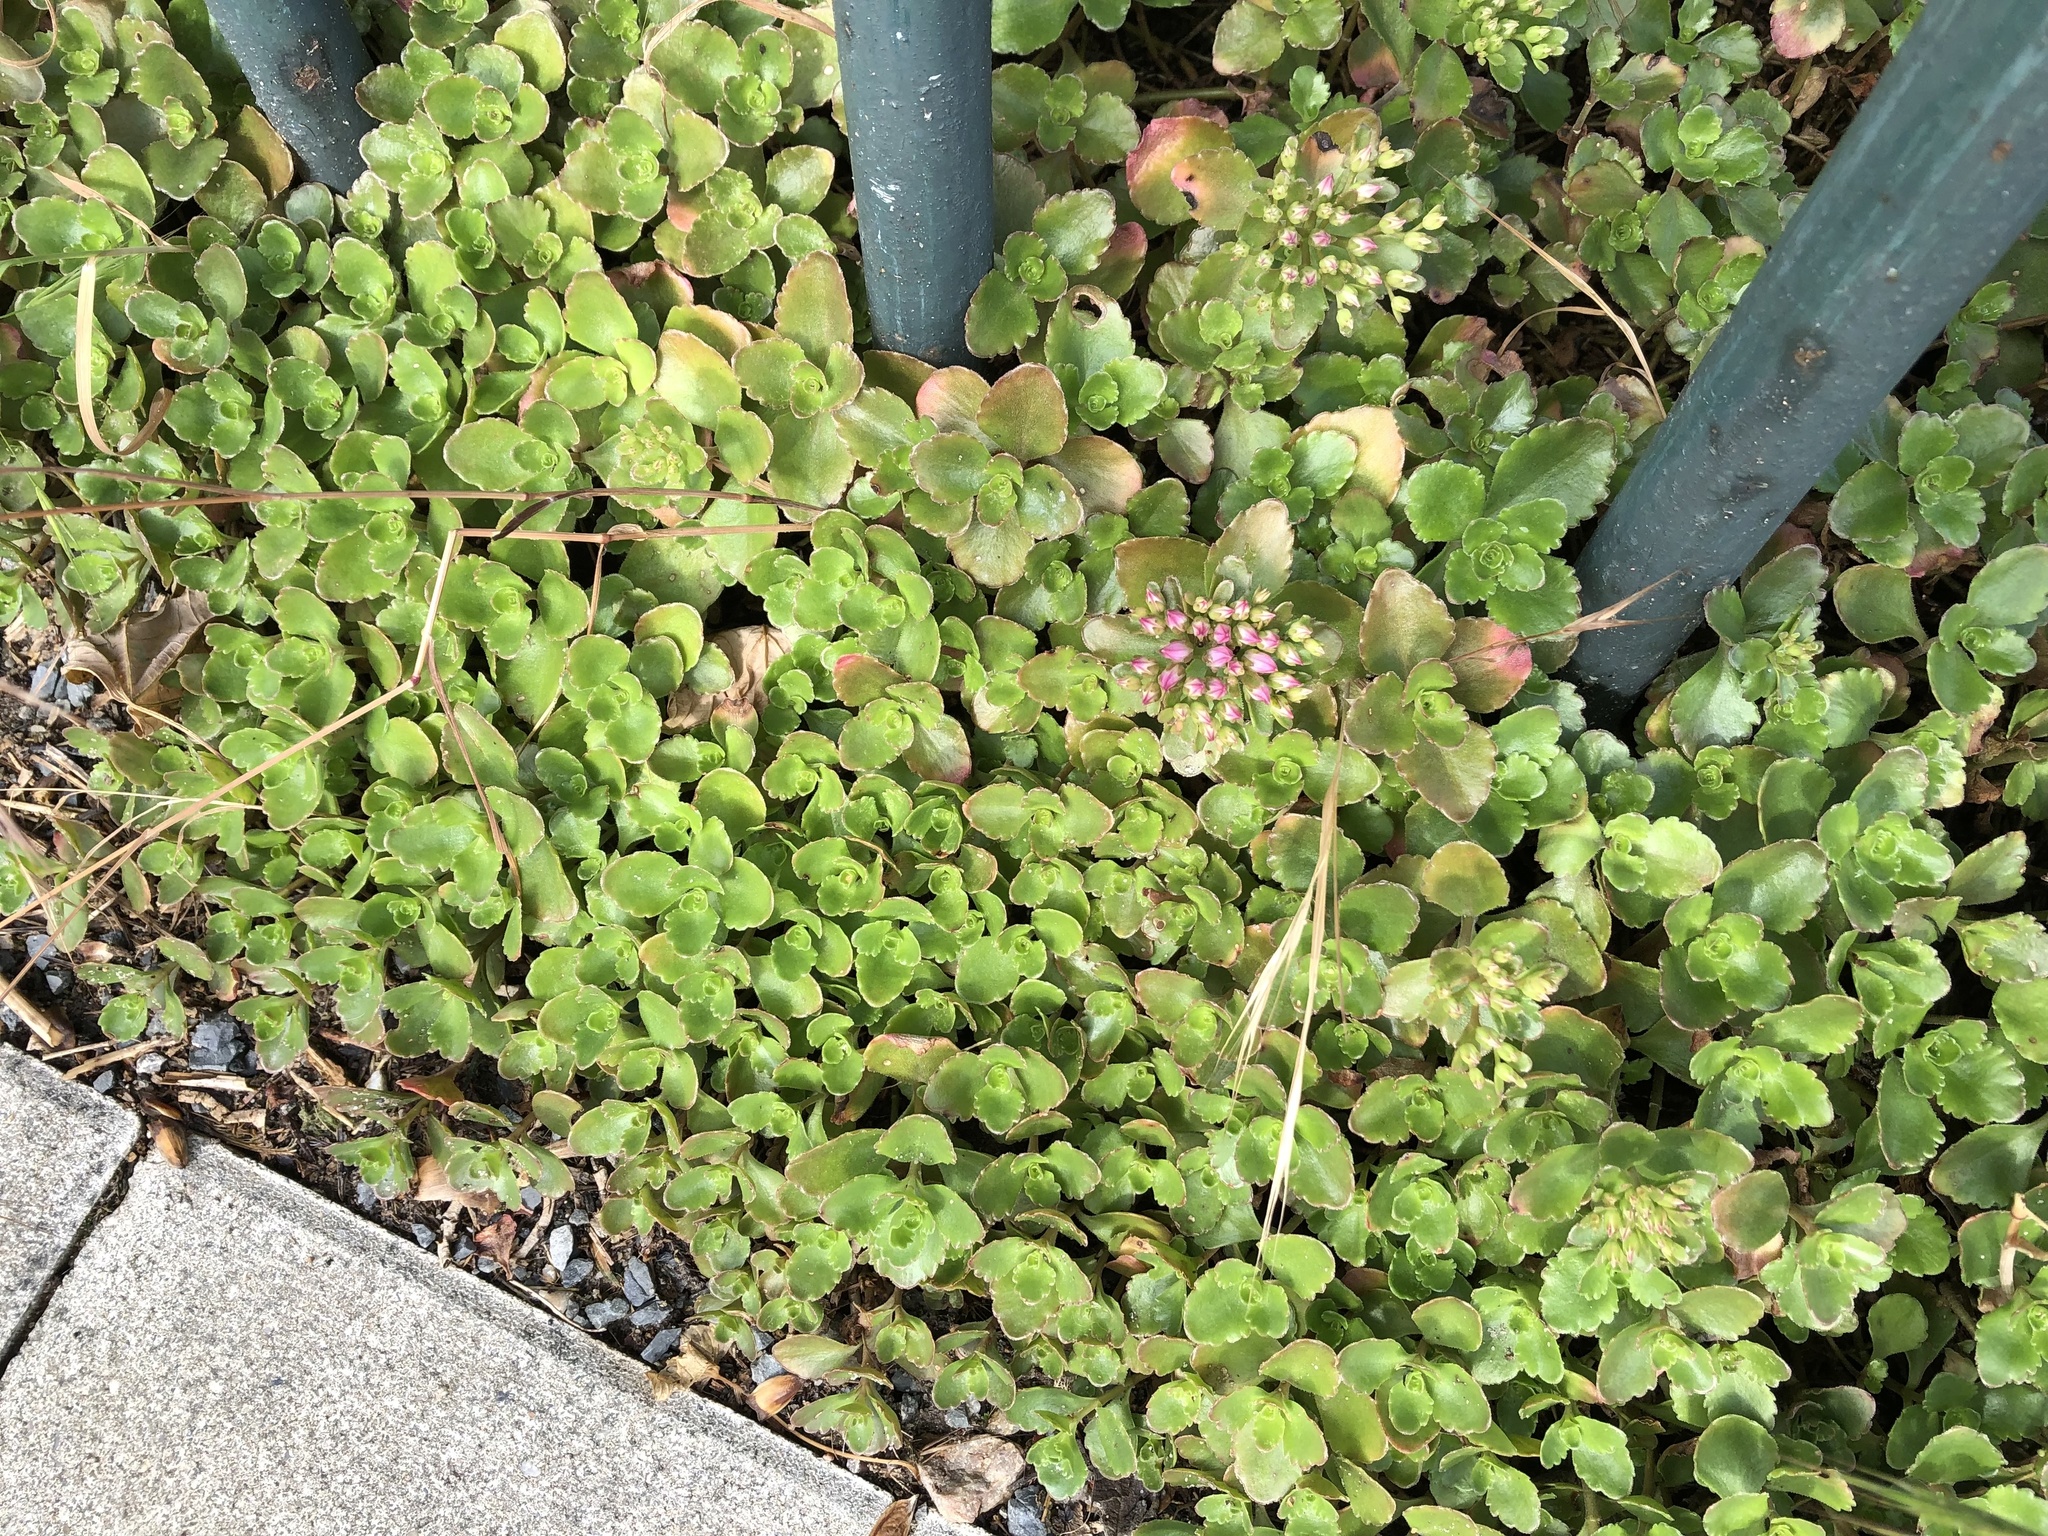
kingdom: Plantae
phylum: Tracheophyta
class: Magnoliopsida
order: Saxifragales
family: Crassulaceae
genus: Phedimus
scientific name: Phedimus spurius
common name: Caucasian stonecrop
